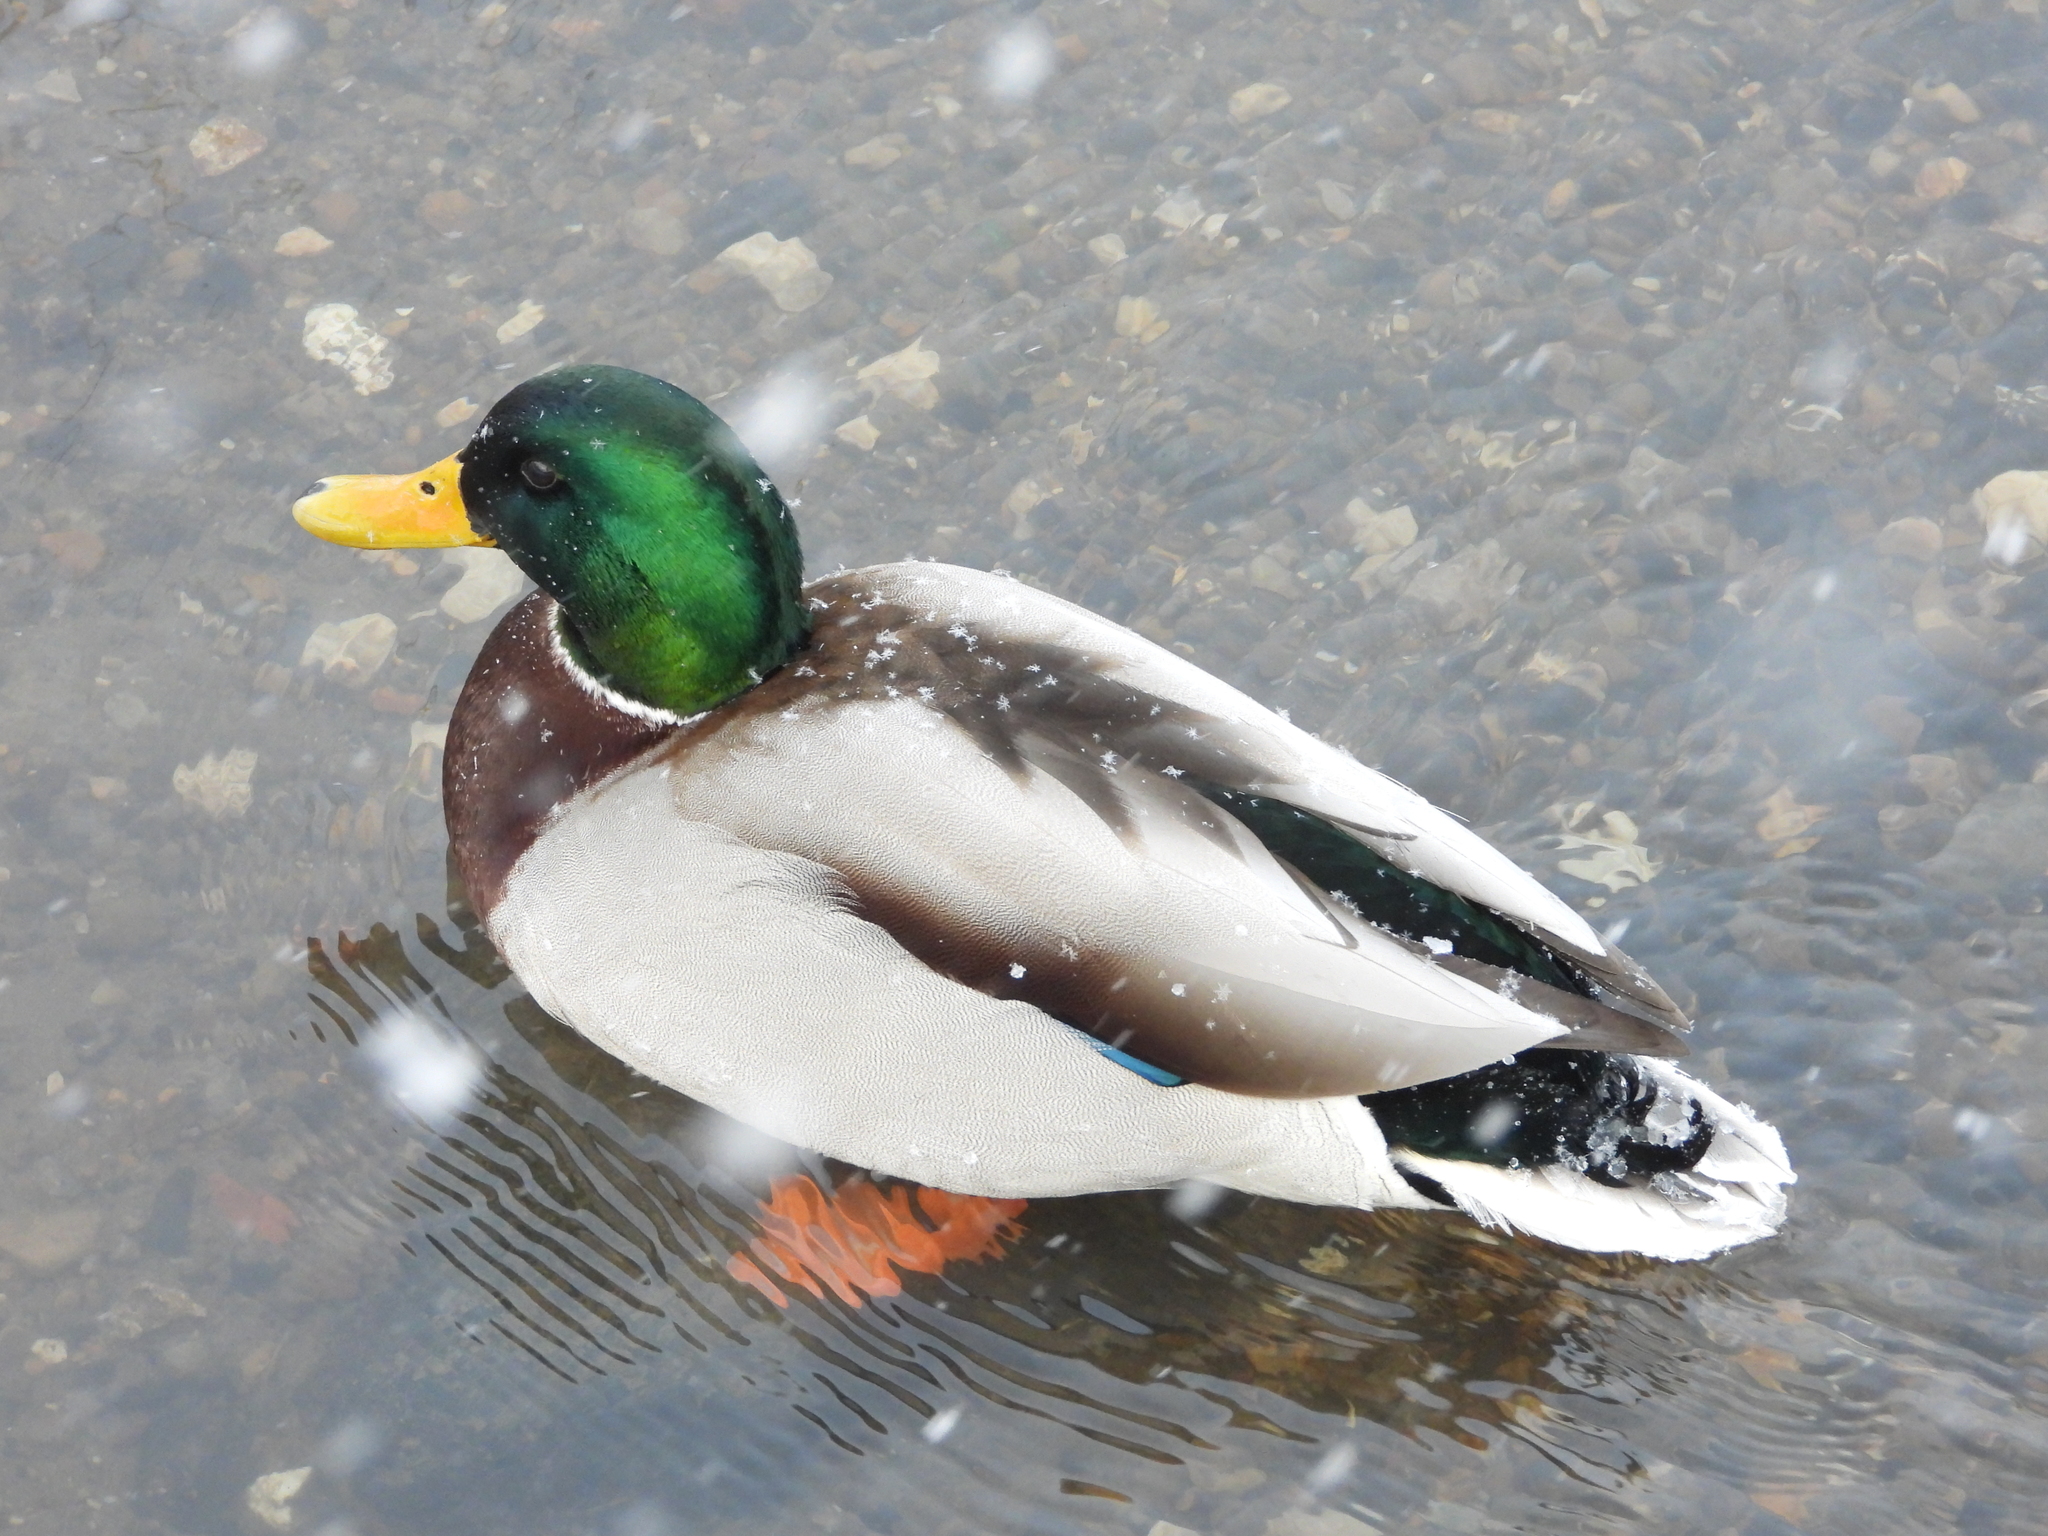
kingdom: Animalia
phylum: Chordata
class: Aves
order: Anseriformes
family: Anatidae
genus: Anas
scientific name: Anas platyrhynchos
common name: Mallard
